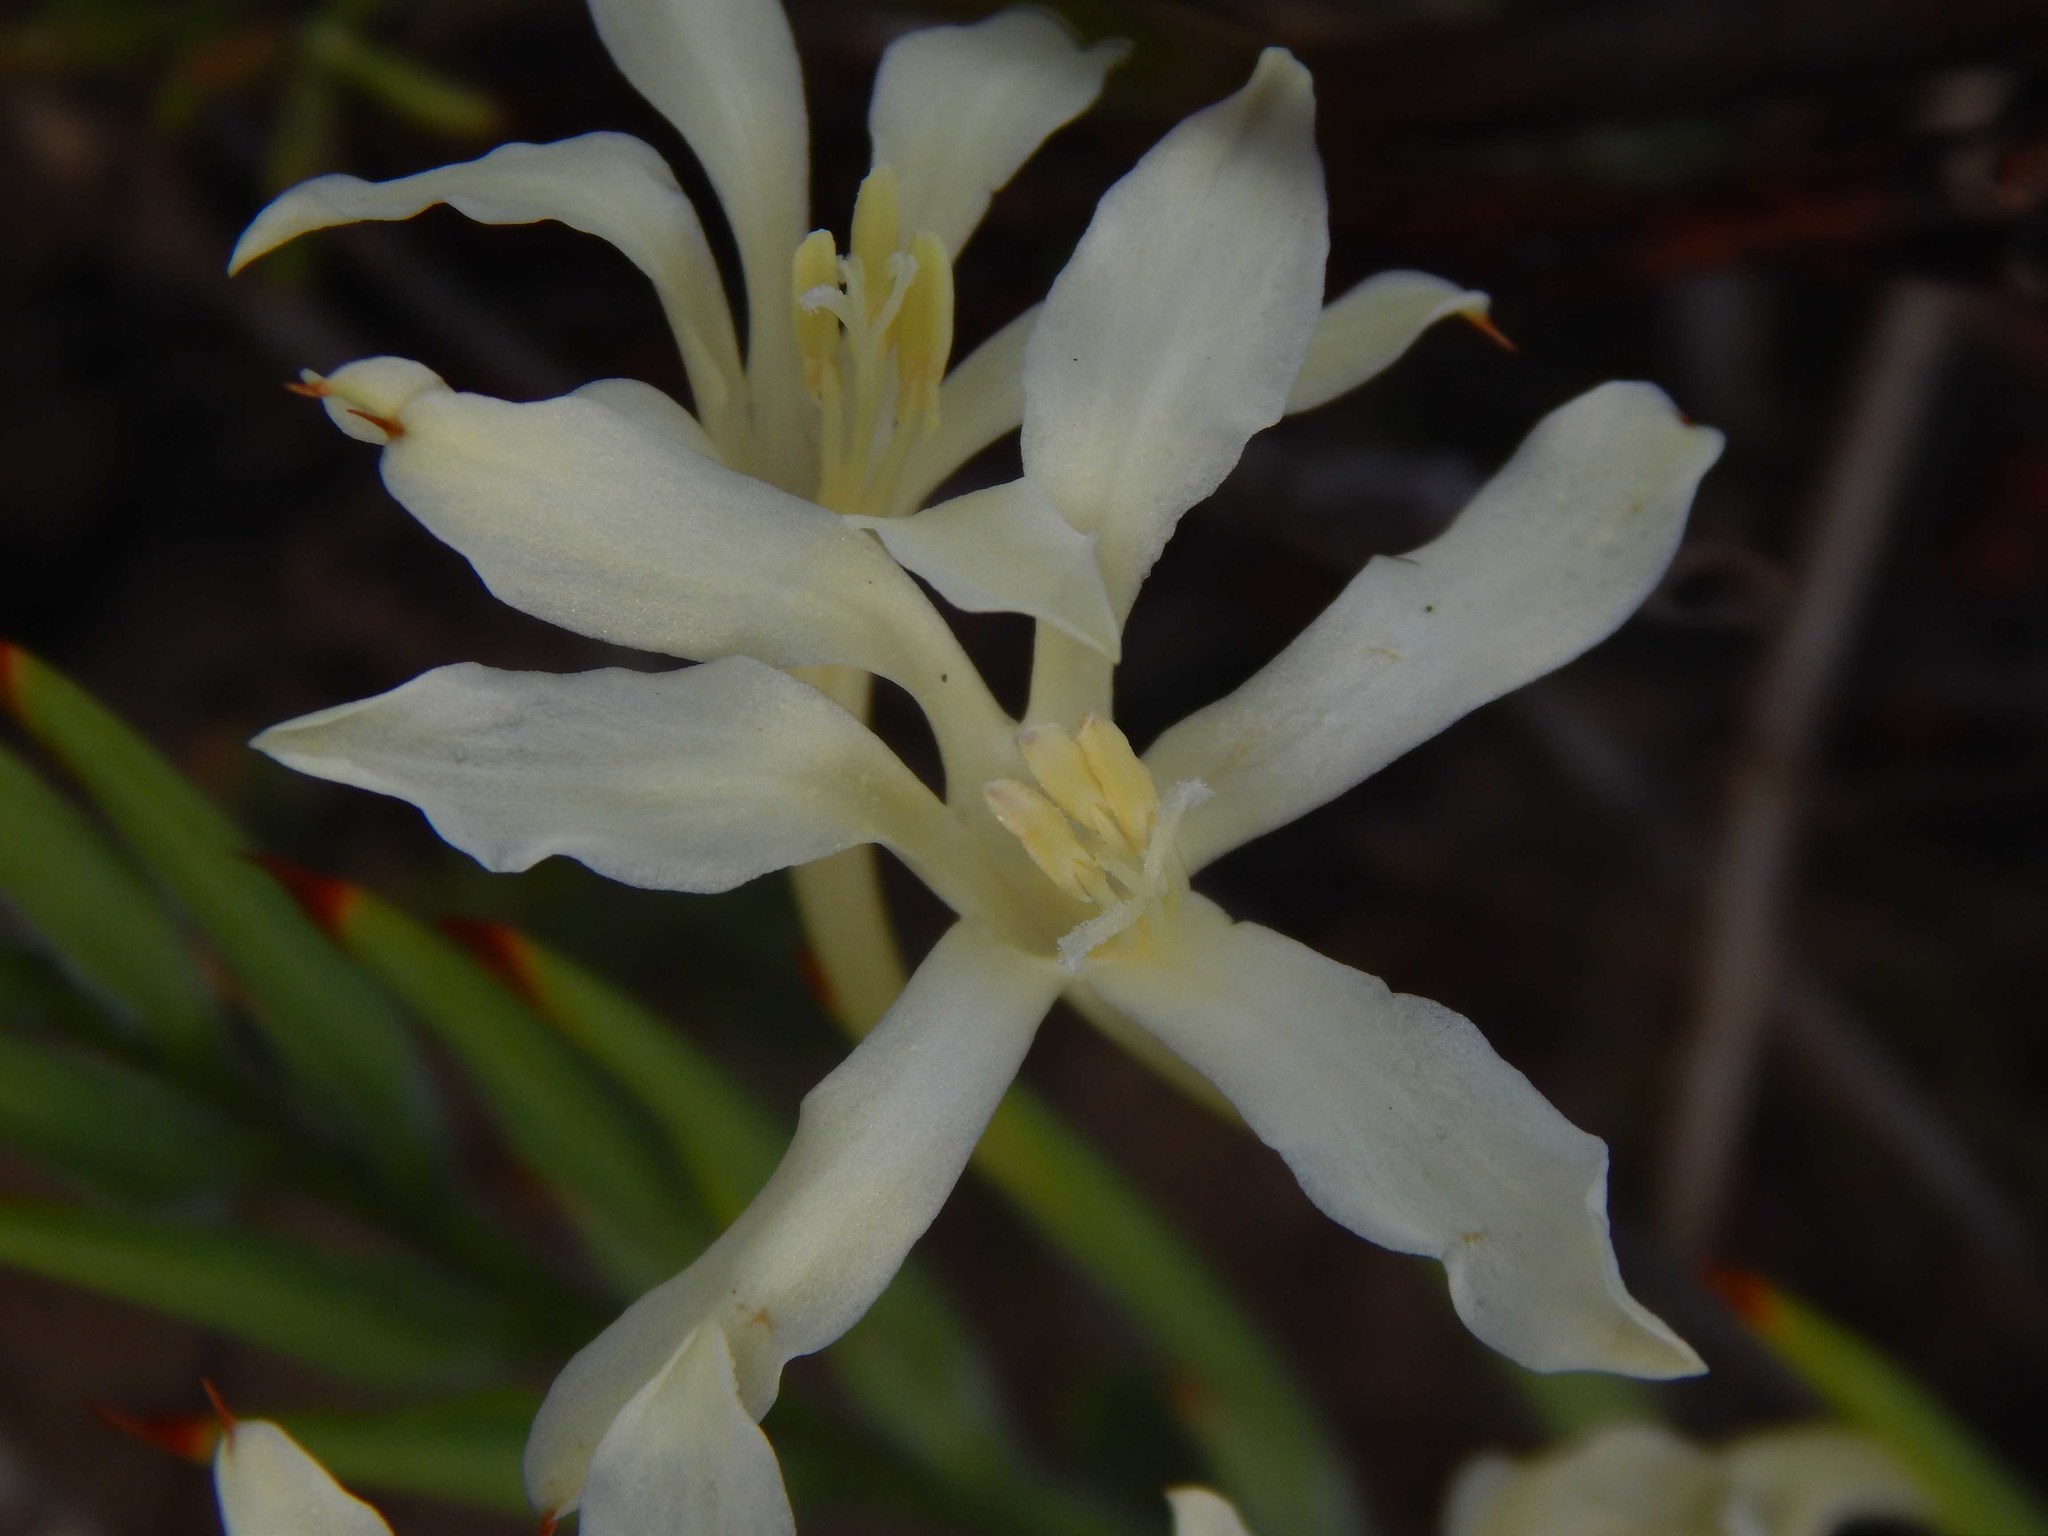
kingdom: Plantae
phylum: Tracheophyta
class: Liliopsida
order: Asparagales
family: Iridaceae
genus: Babiana
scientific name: Babiana tubiflora
